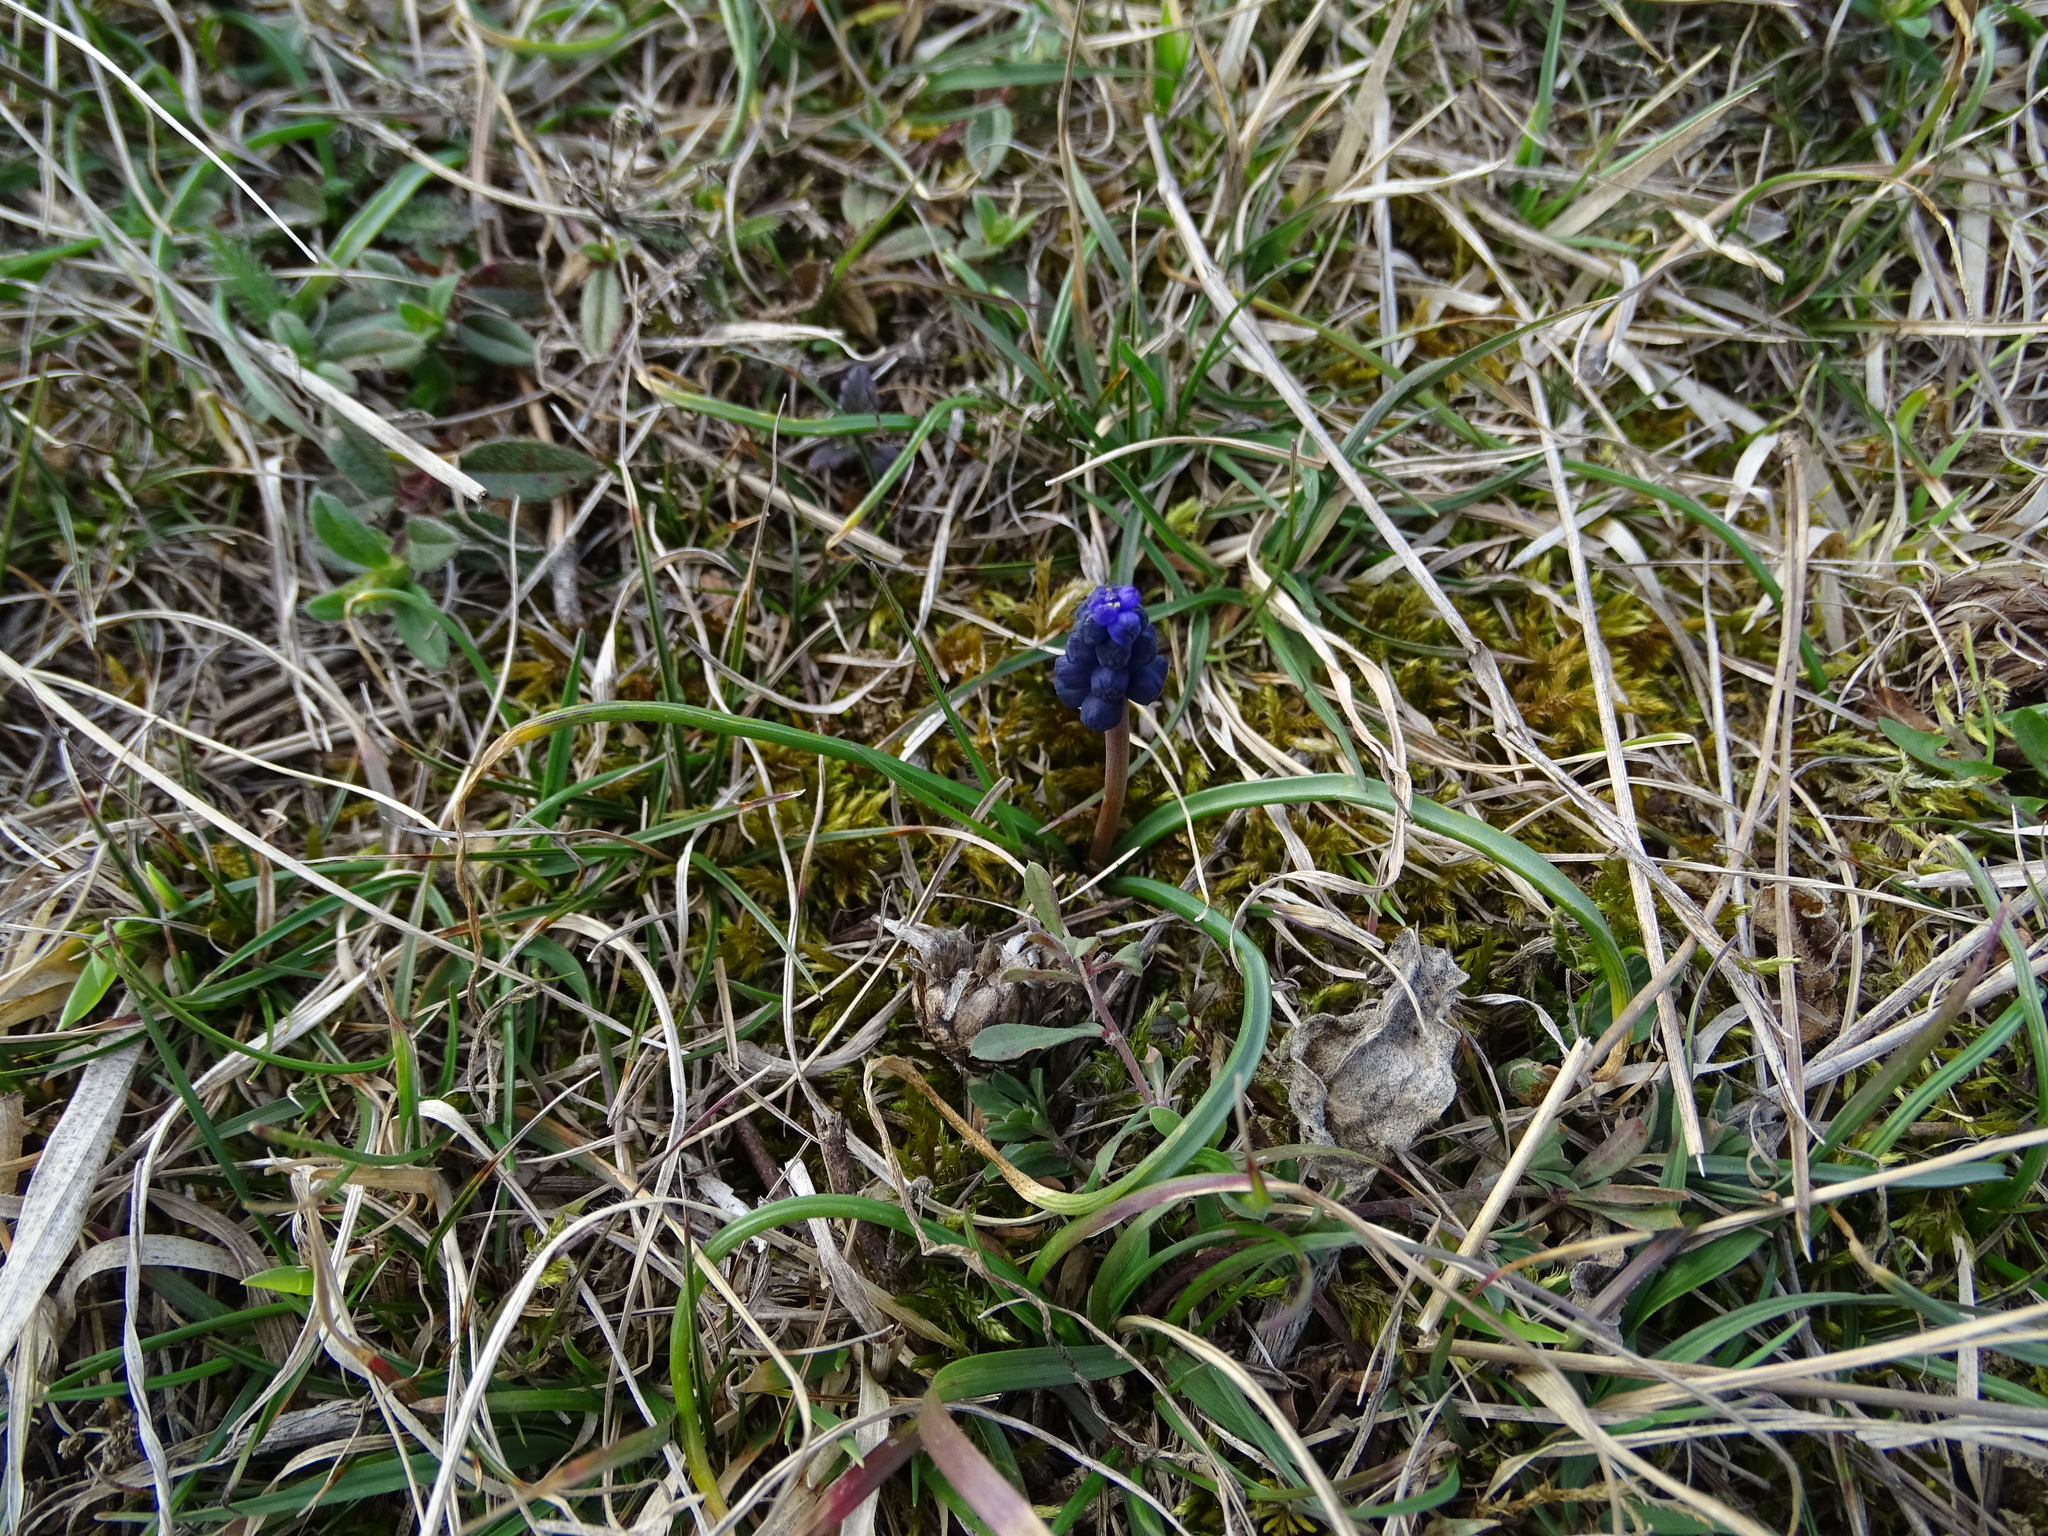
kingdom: Plantae
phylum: Tracheophyta
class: Liliopsida
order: Asparagales
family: Asparagaceae
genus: Muscari
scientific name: Muscari neglectum
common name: Grape-hyacinth
